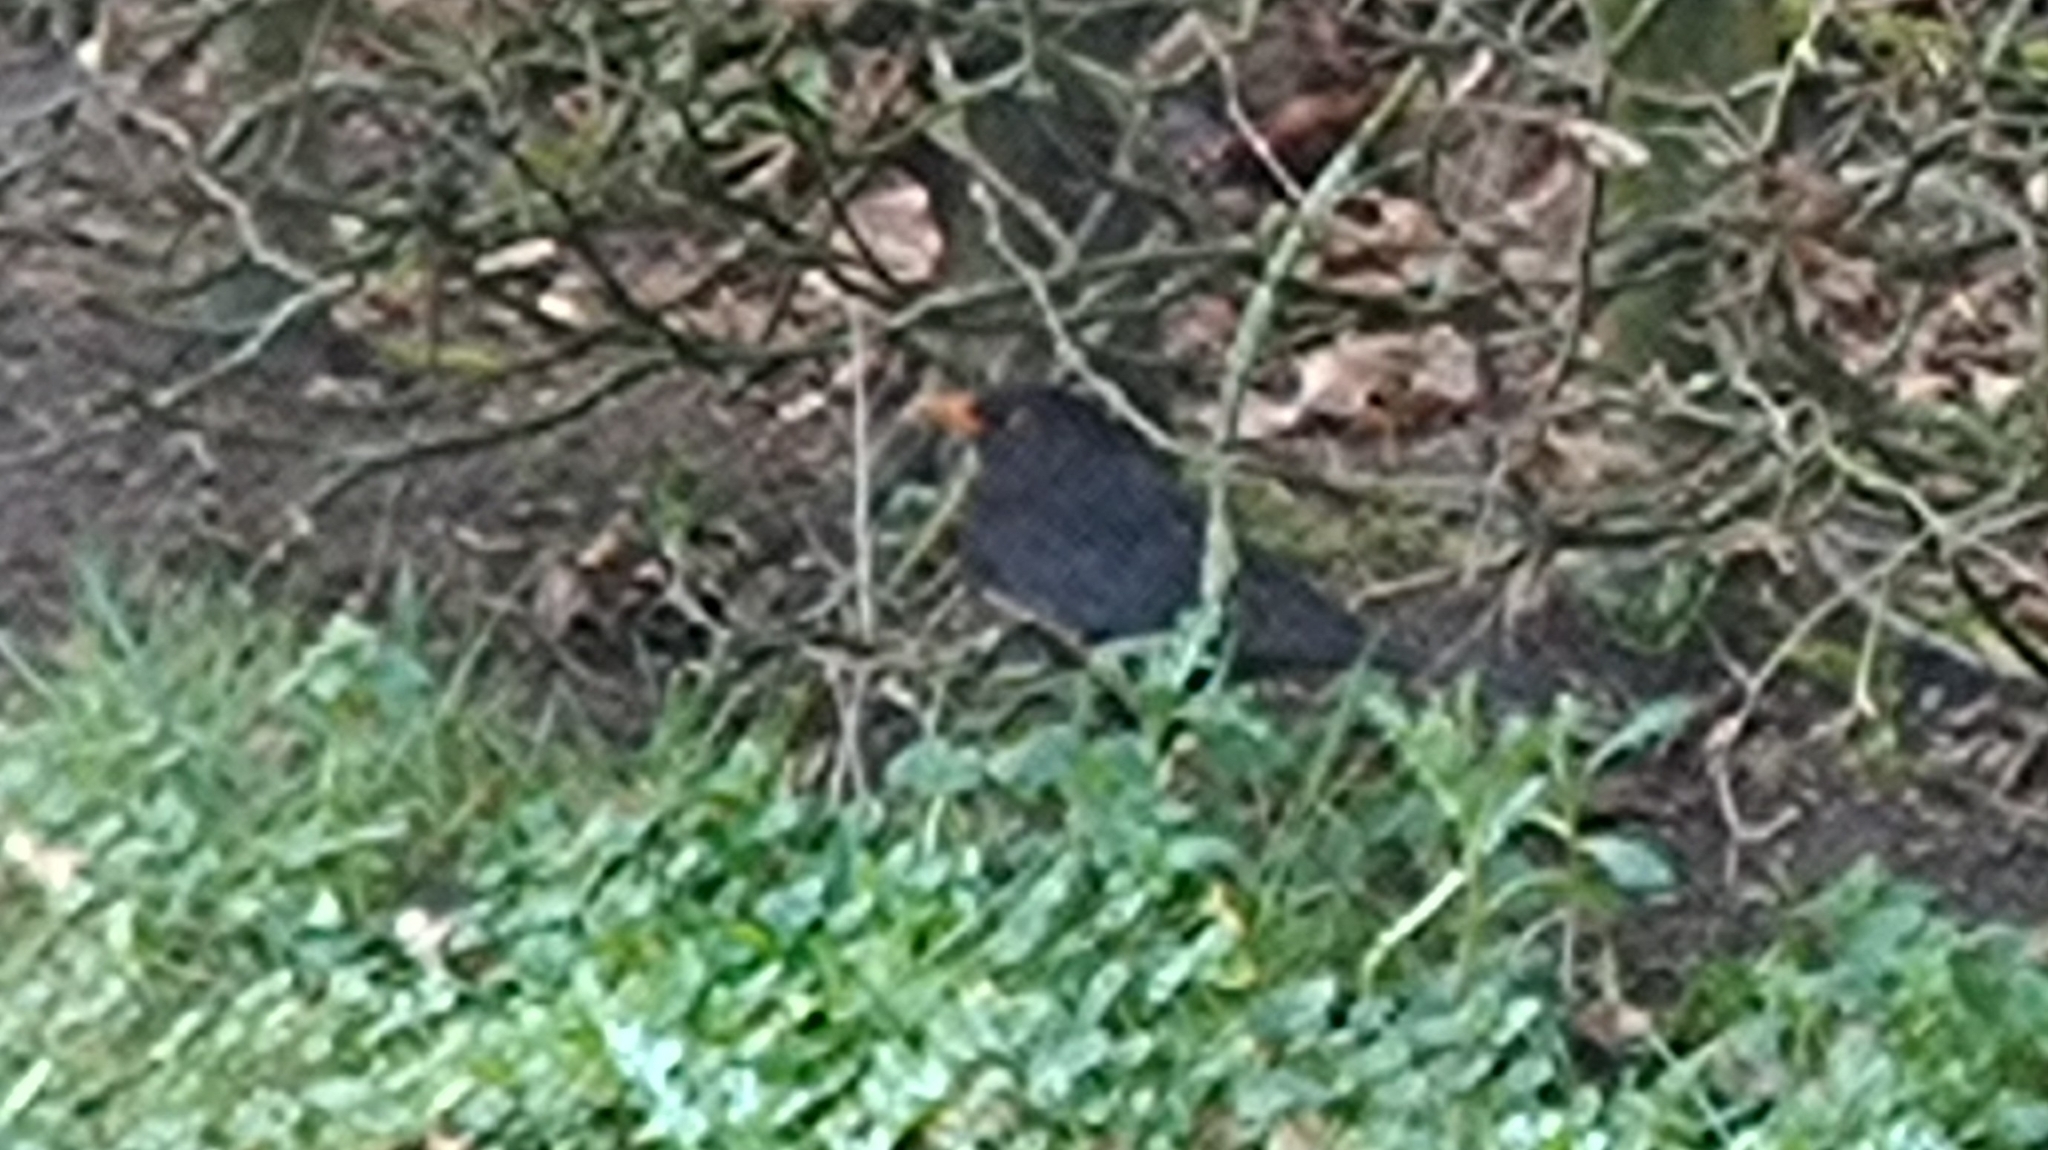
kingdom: Animalia
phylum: Chordata
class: Aves
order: Passeriformes
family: Turdidae
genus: Turdus
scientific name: Turdus merula
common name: Common blackbird
